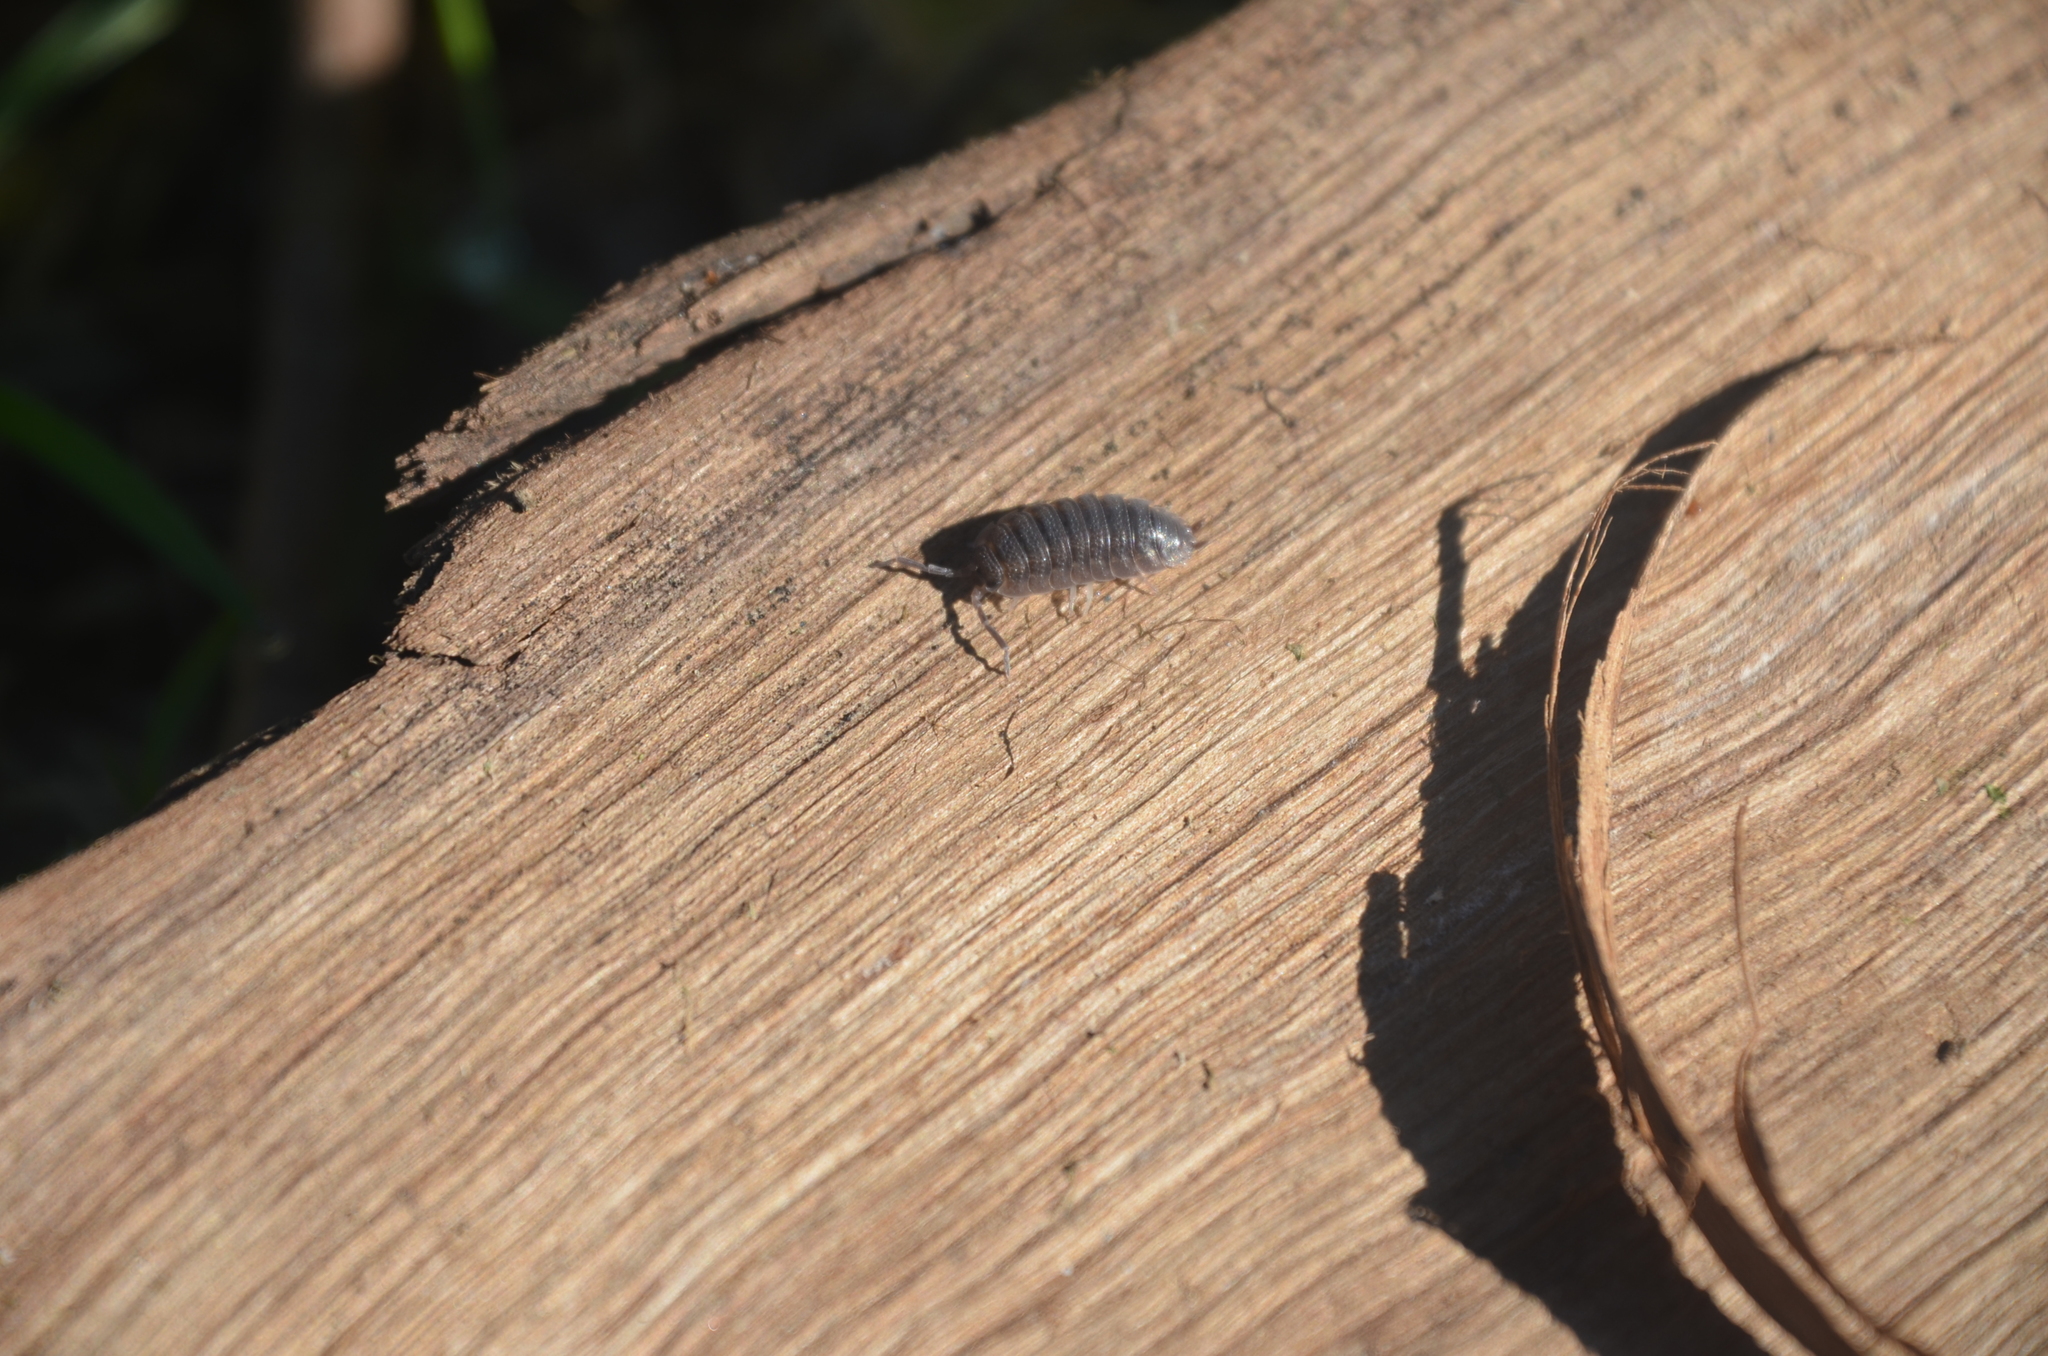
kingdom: Animalia
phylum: Arthropoda
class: Malacostraca
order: Isopoda
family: Porcellionidae
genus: Porcellio
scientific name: Porcellio scaber
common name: Common rough woodlouse
